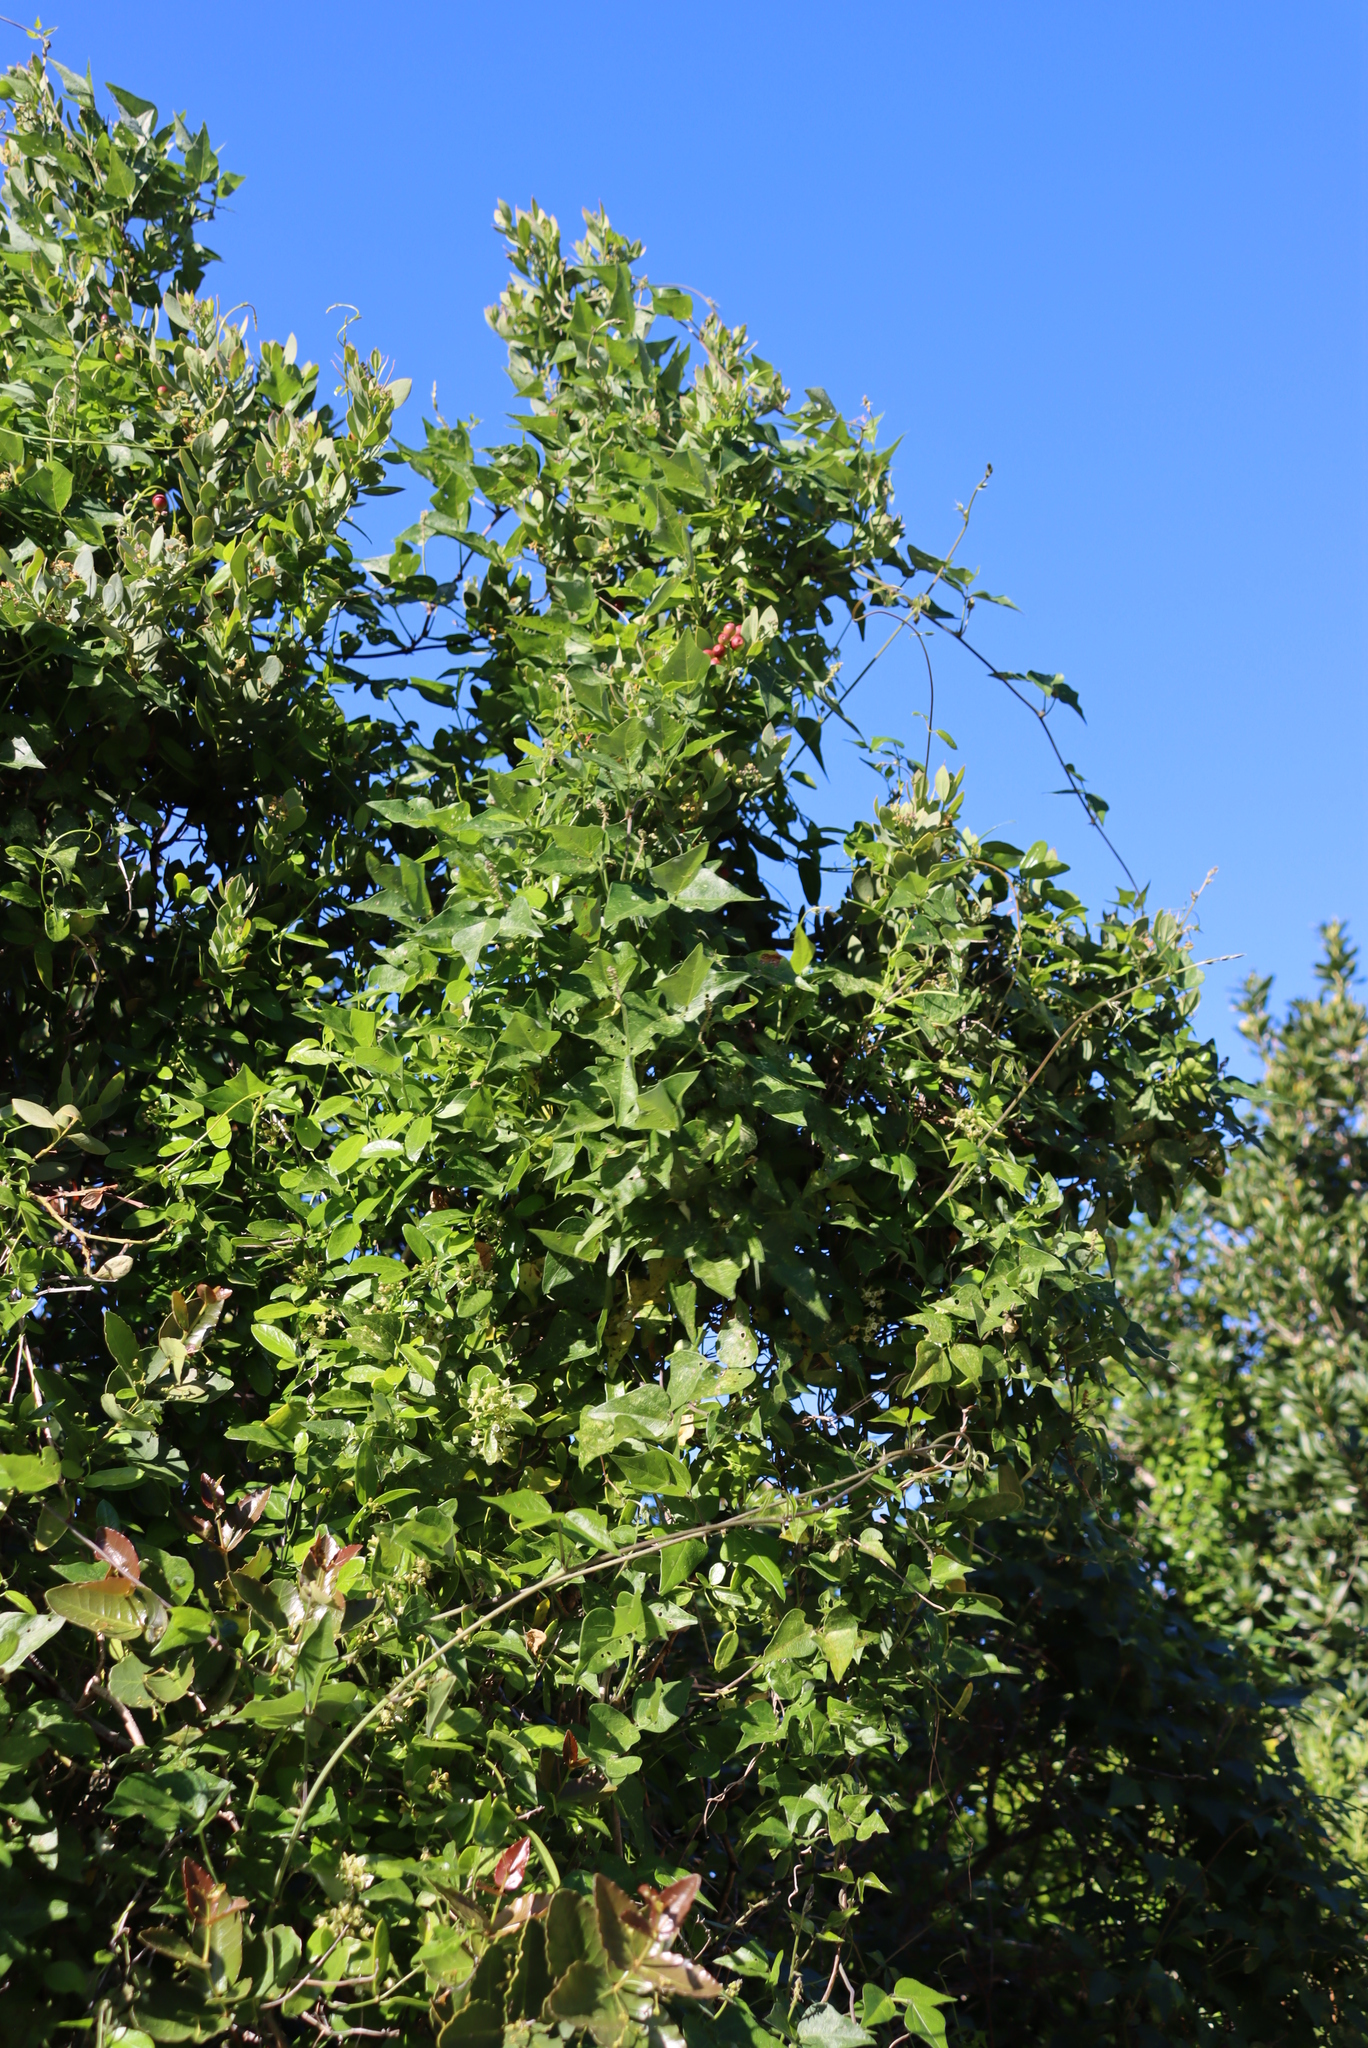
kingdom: Plantae
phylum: Tracheophyta
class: Magnoliopsida
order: Fabales
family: Fabaceae
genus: Dipogon
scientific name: Dipogon lignosus
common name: Okie bean
